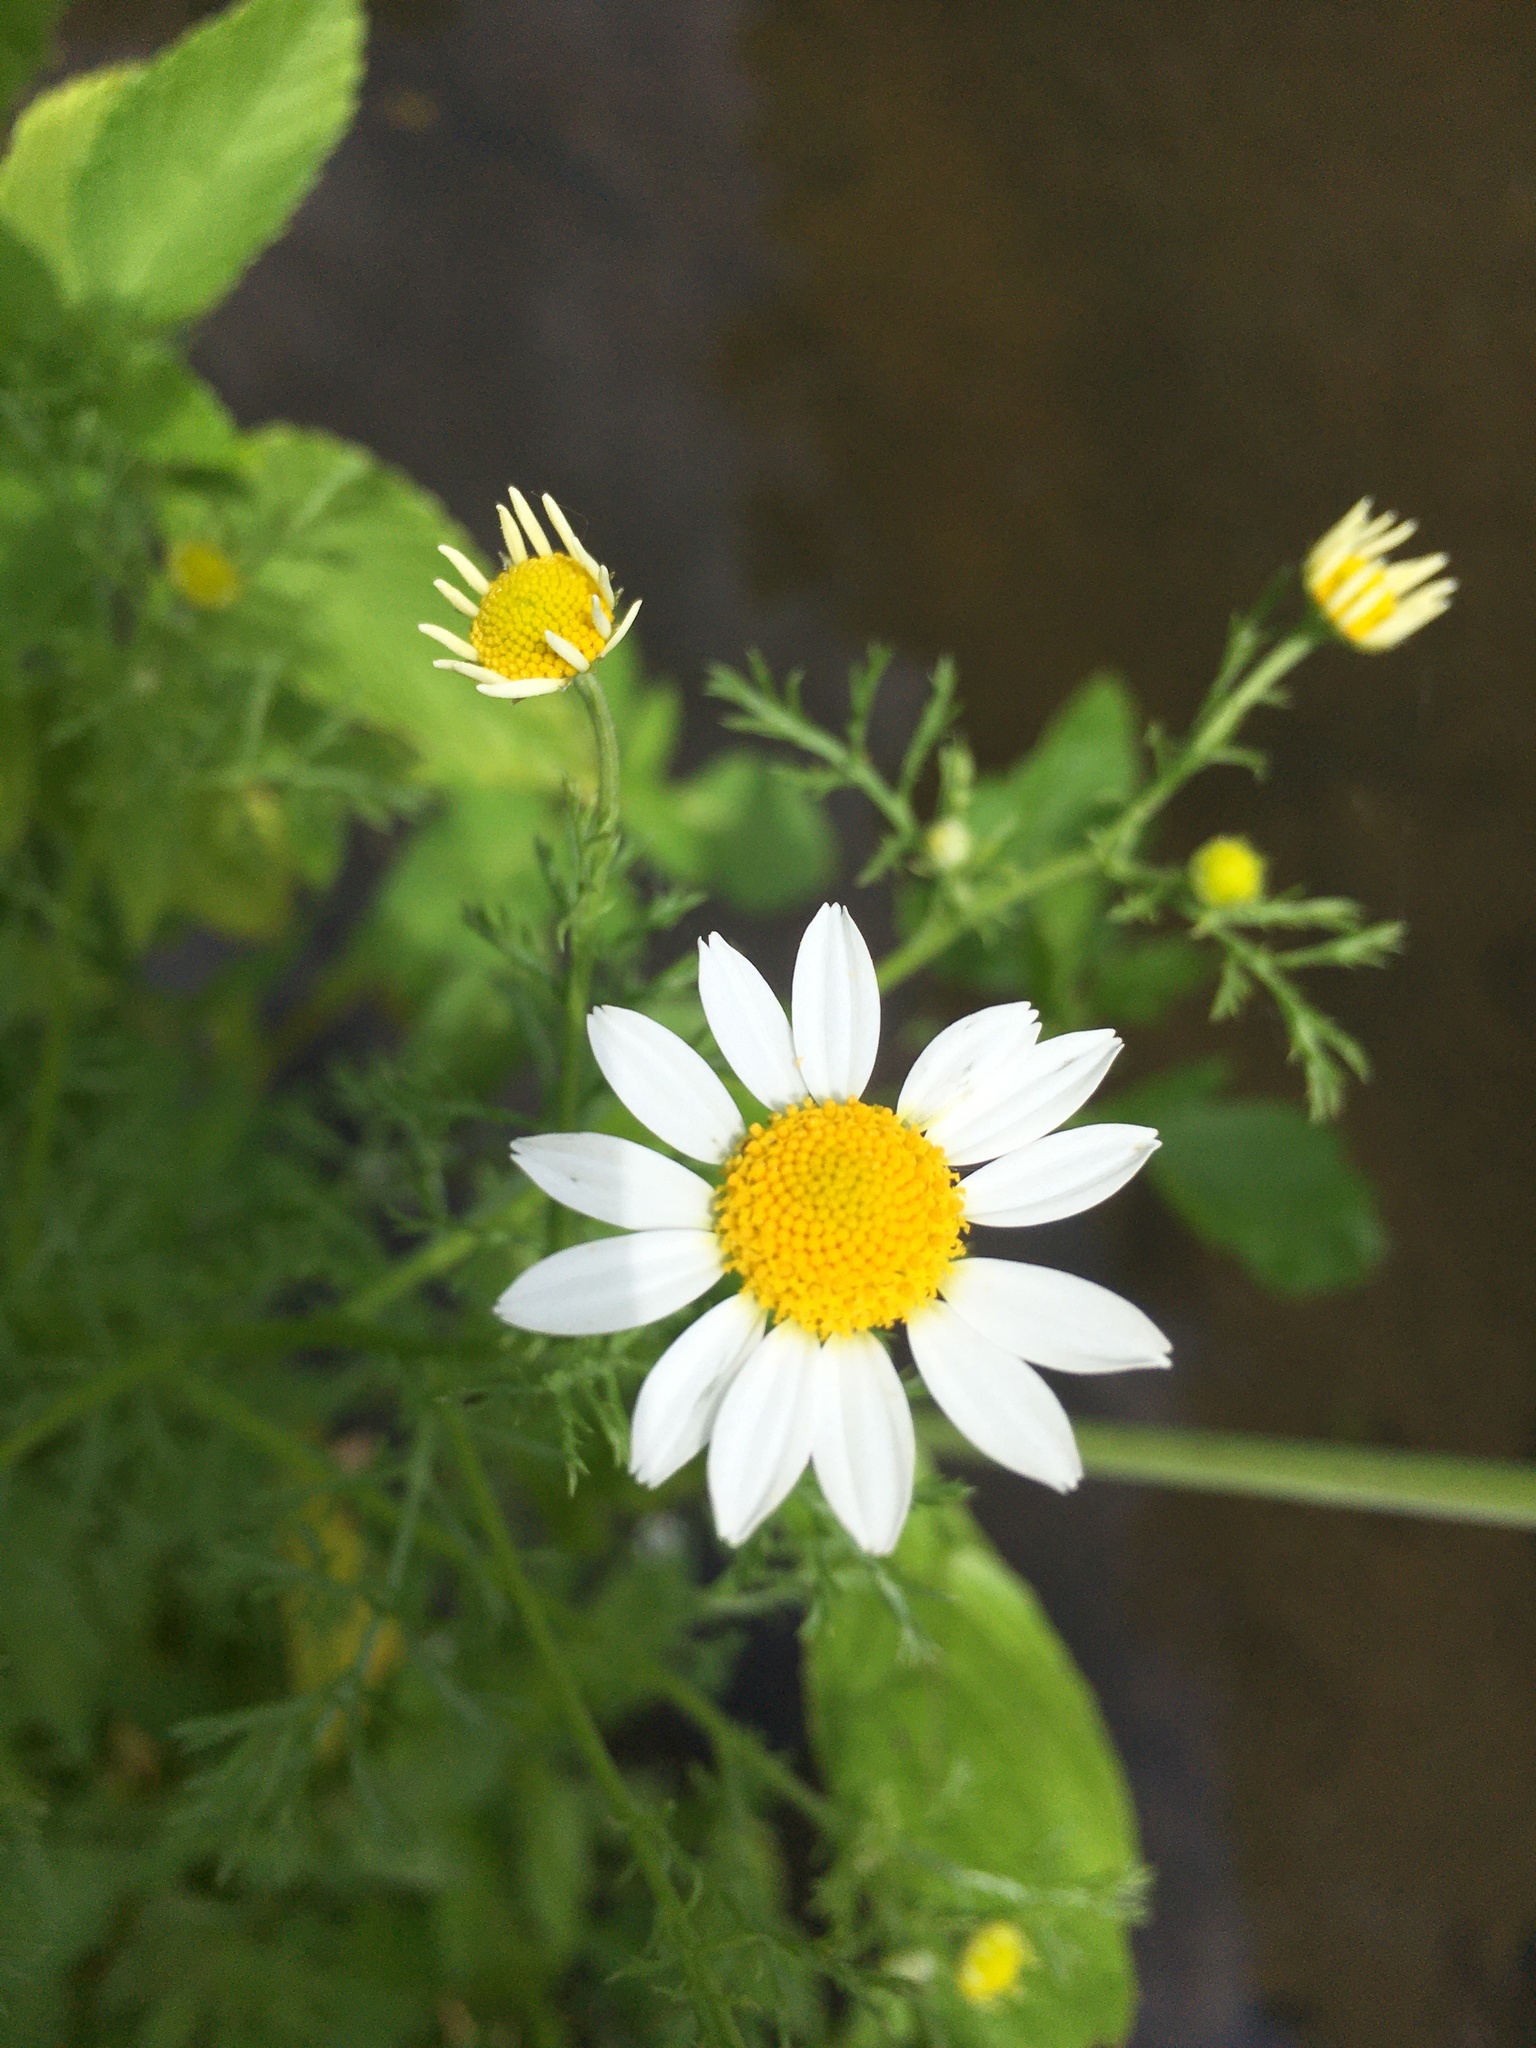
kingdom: Plantae
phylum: Tracheophyta
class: Magnoliopsida
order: Asterales
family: Asteraceae
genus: Anthemis
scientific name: Anthemis cotula
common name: Stinking chamomile
